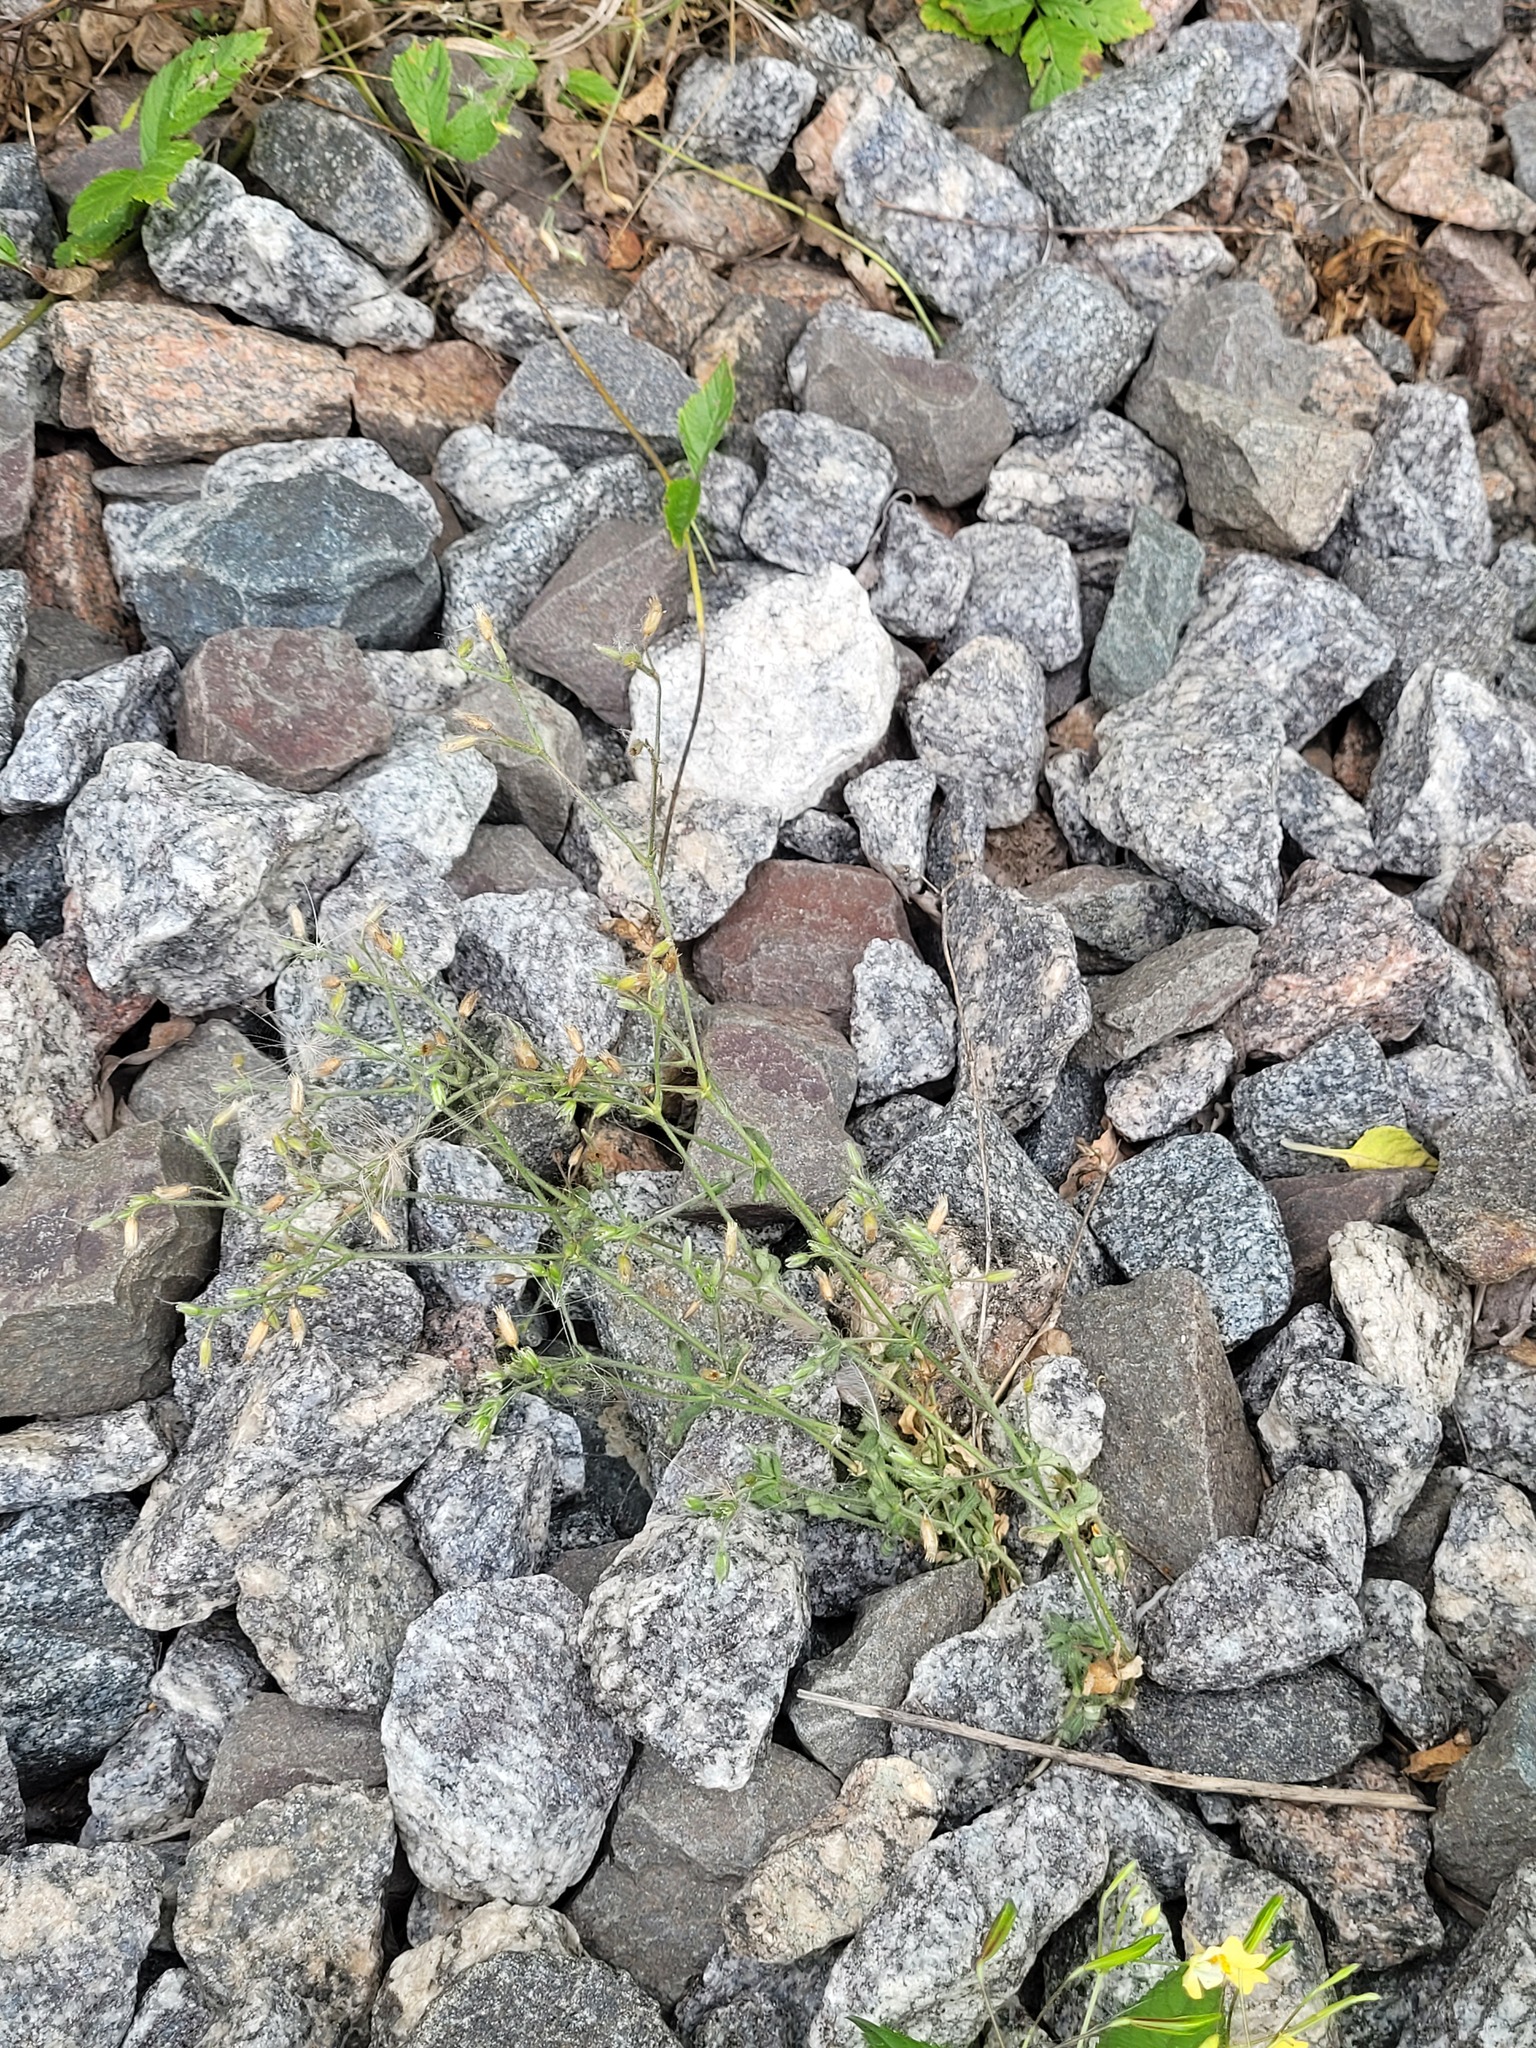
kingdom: Plantae
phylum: Tracheophyta
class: Magnoliopsida
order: Caryophyllales
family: Caryophyllaceae
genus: Cerastium
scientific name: Cerastium holosteoides
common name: Big chickweed
